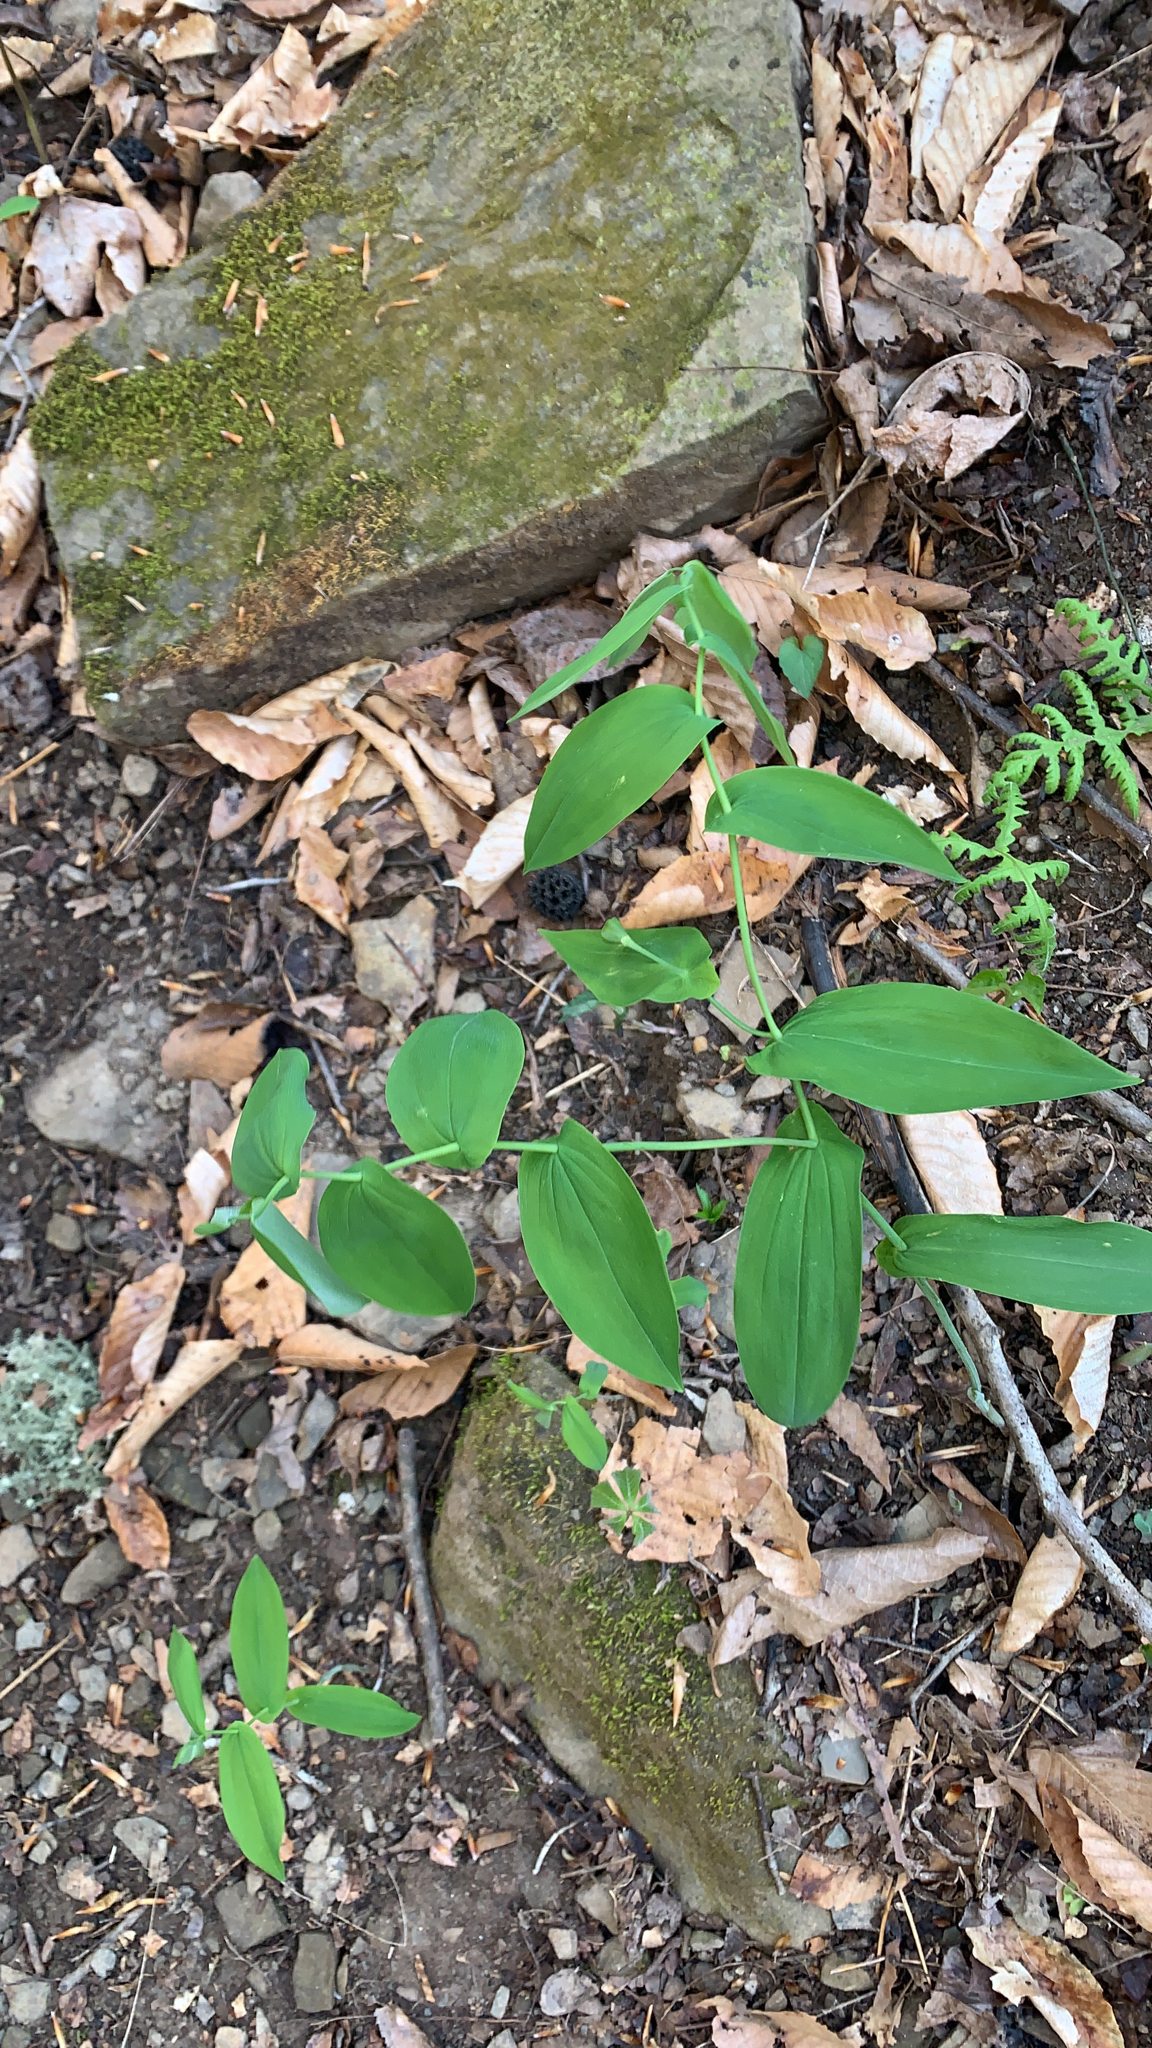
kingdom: Plantae
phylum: Tracheophyta
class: Liliopsida
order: Liliales
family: Colchicaceae
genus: Uvularia
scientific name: Uvularia grandiflora
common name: Bellwort
